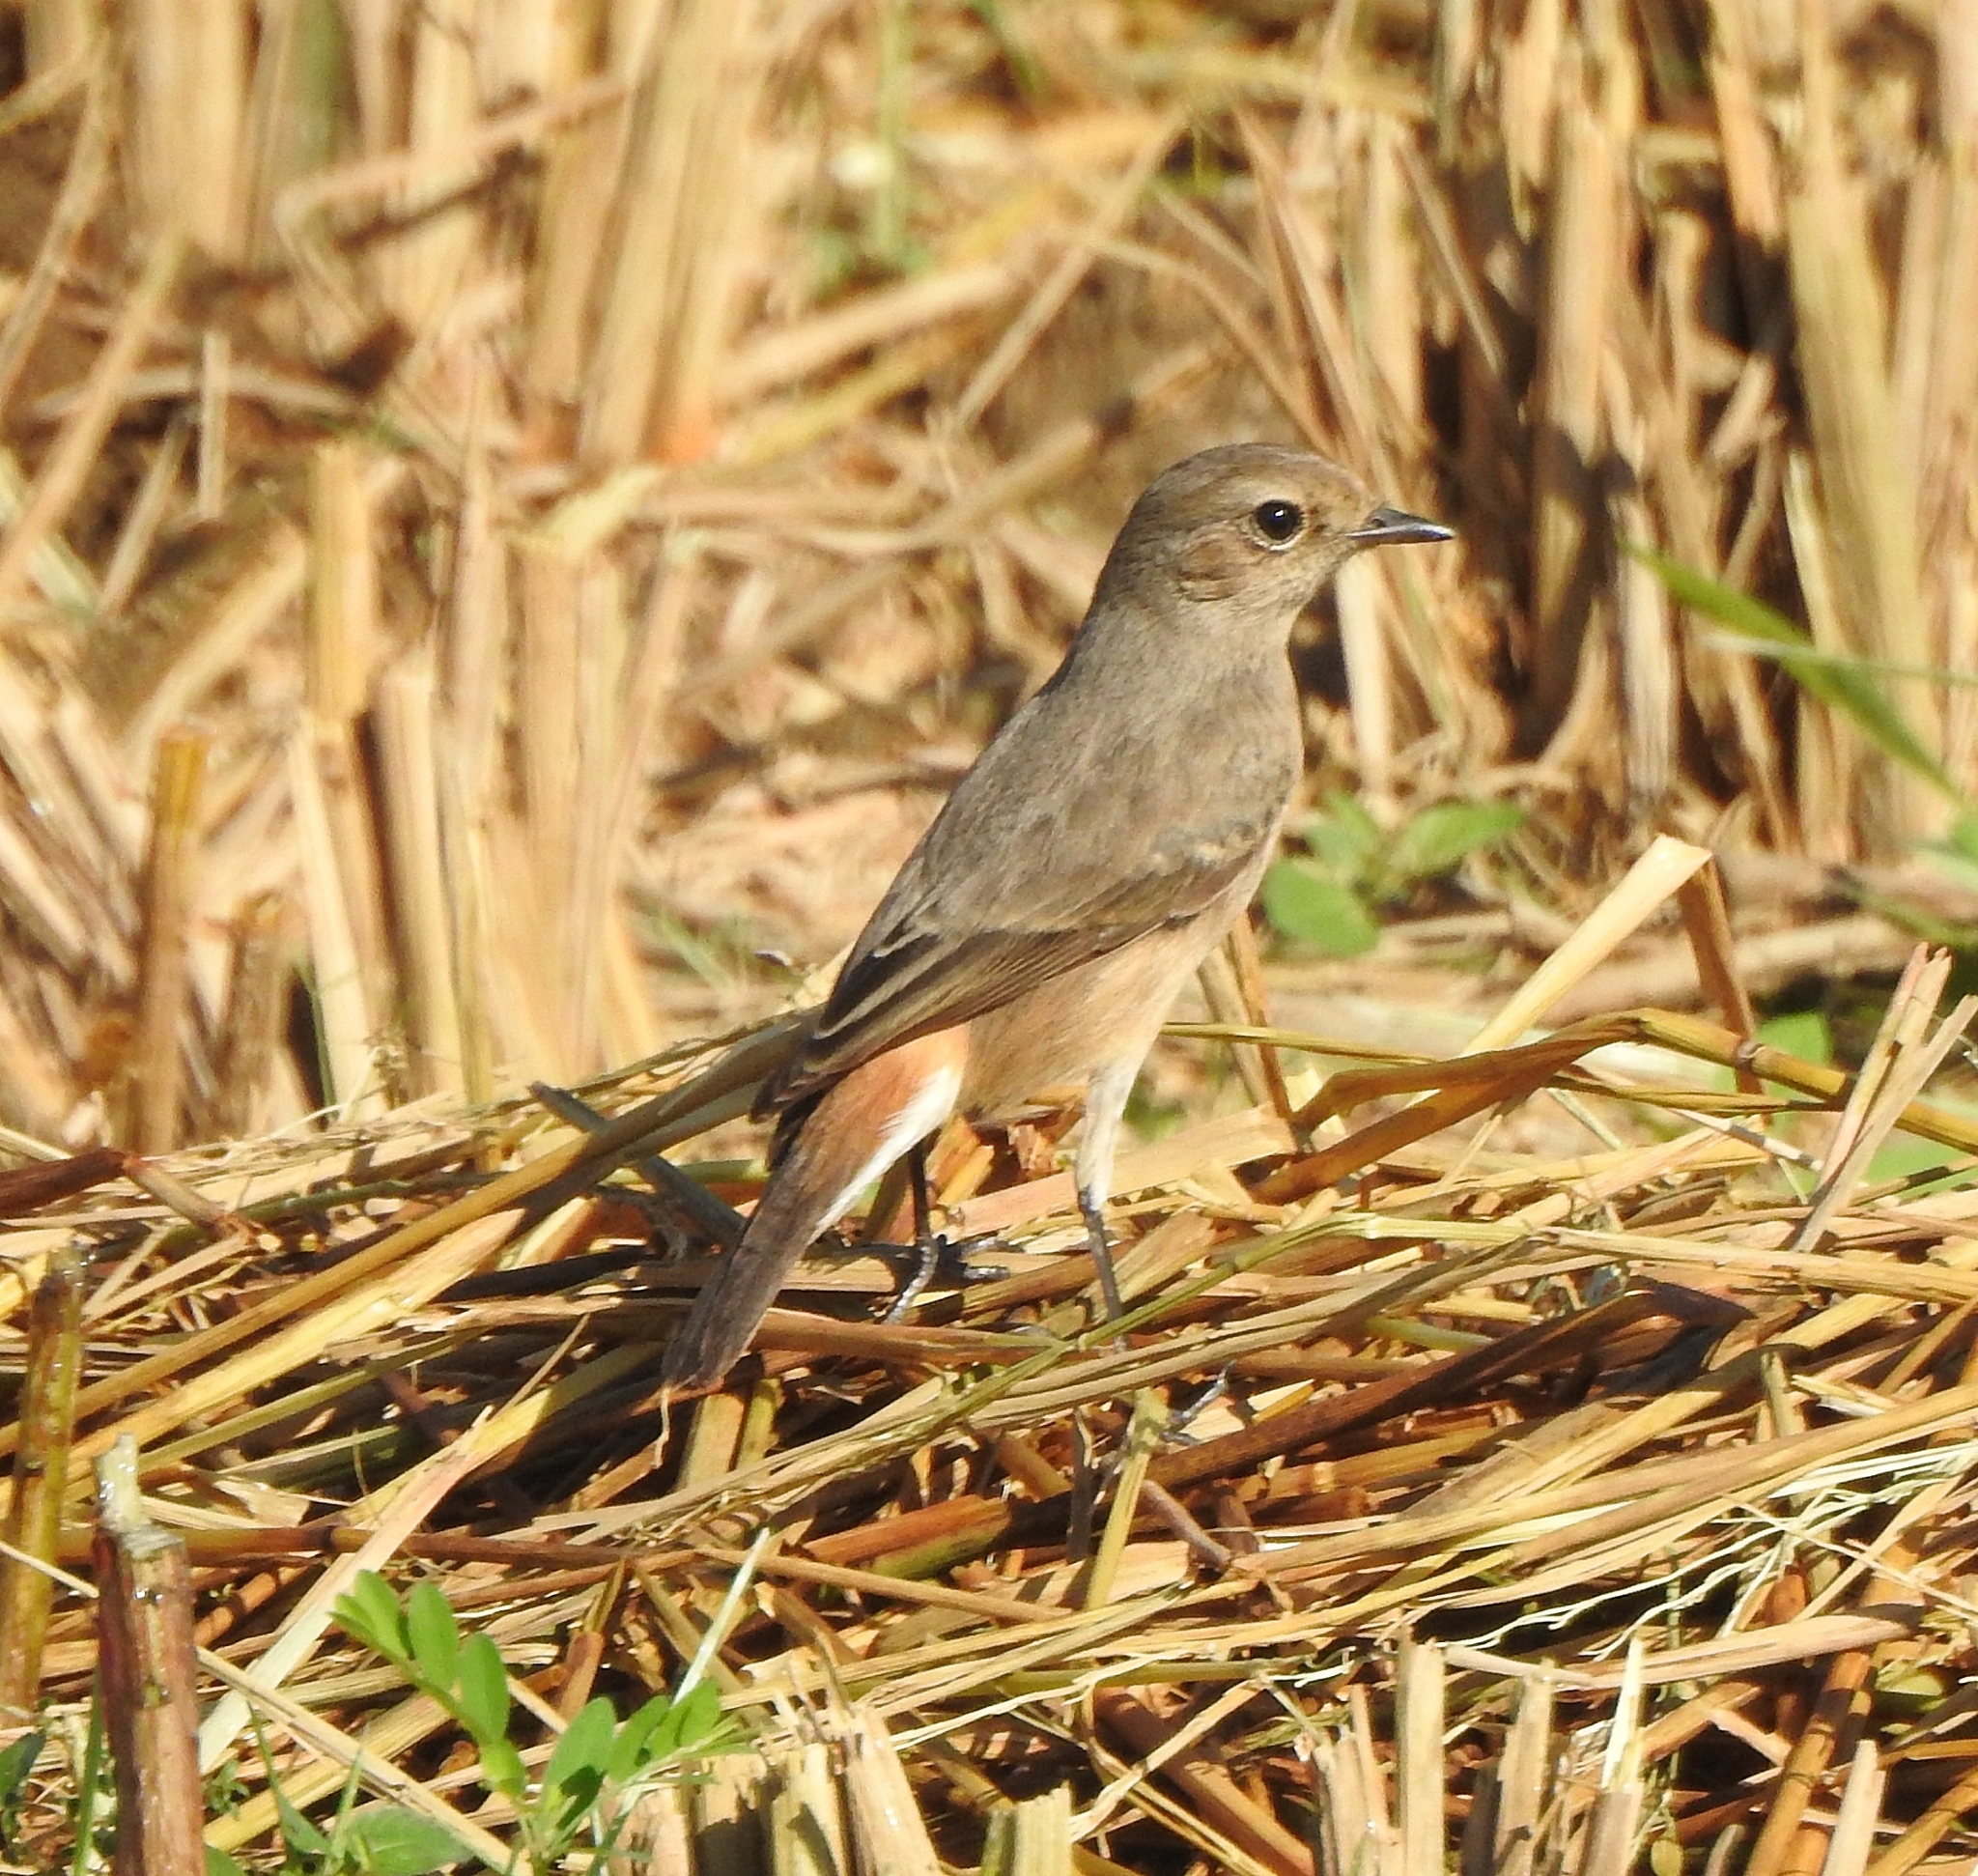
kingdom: Animalia
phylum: Chordata
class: Aves
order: Passeriformes
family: Muscicapidae
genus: Saxicola
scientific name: Saxicola caprata
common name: Pied bush chat
